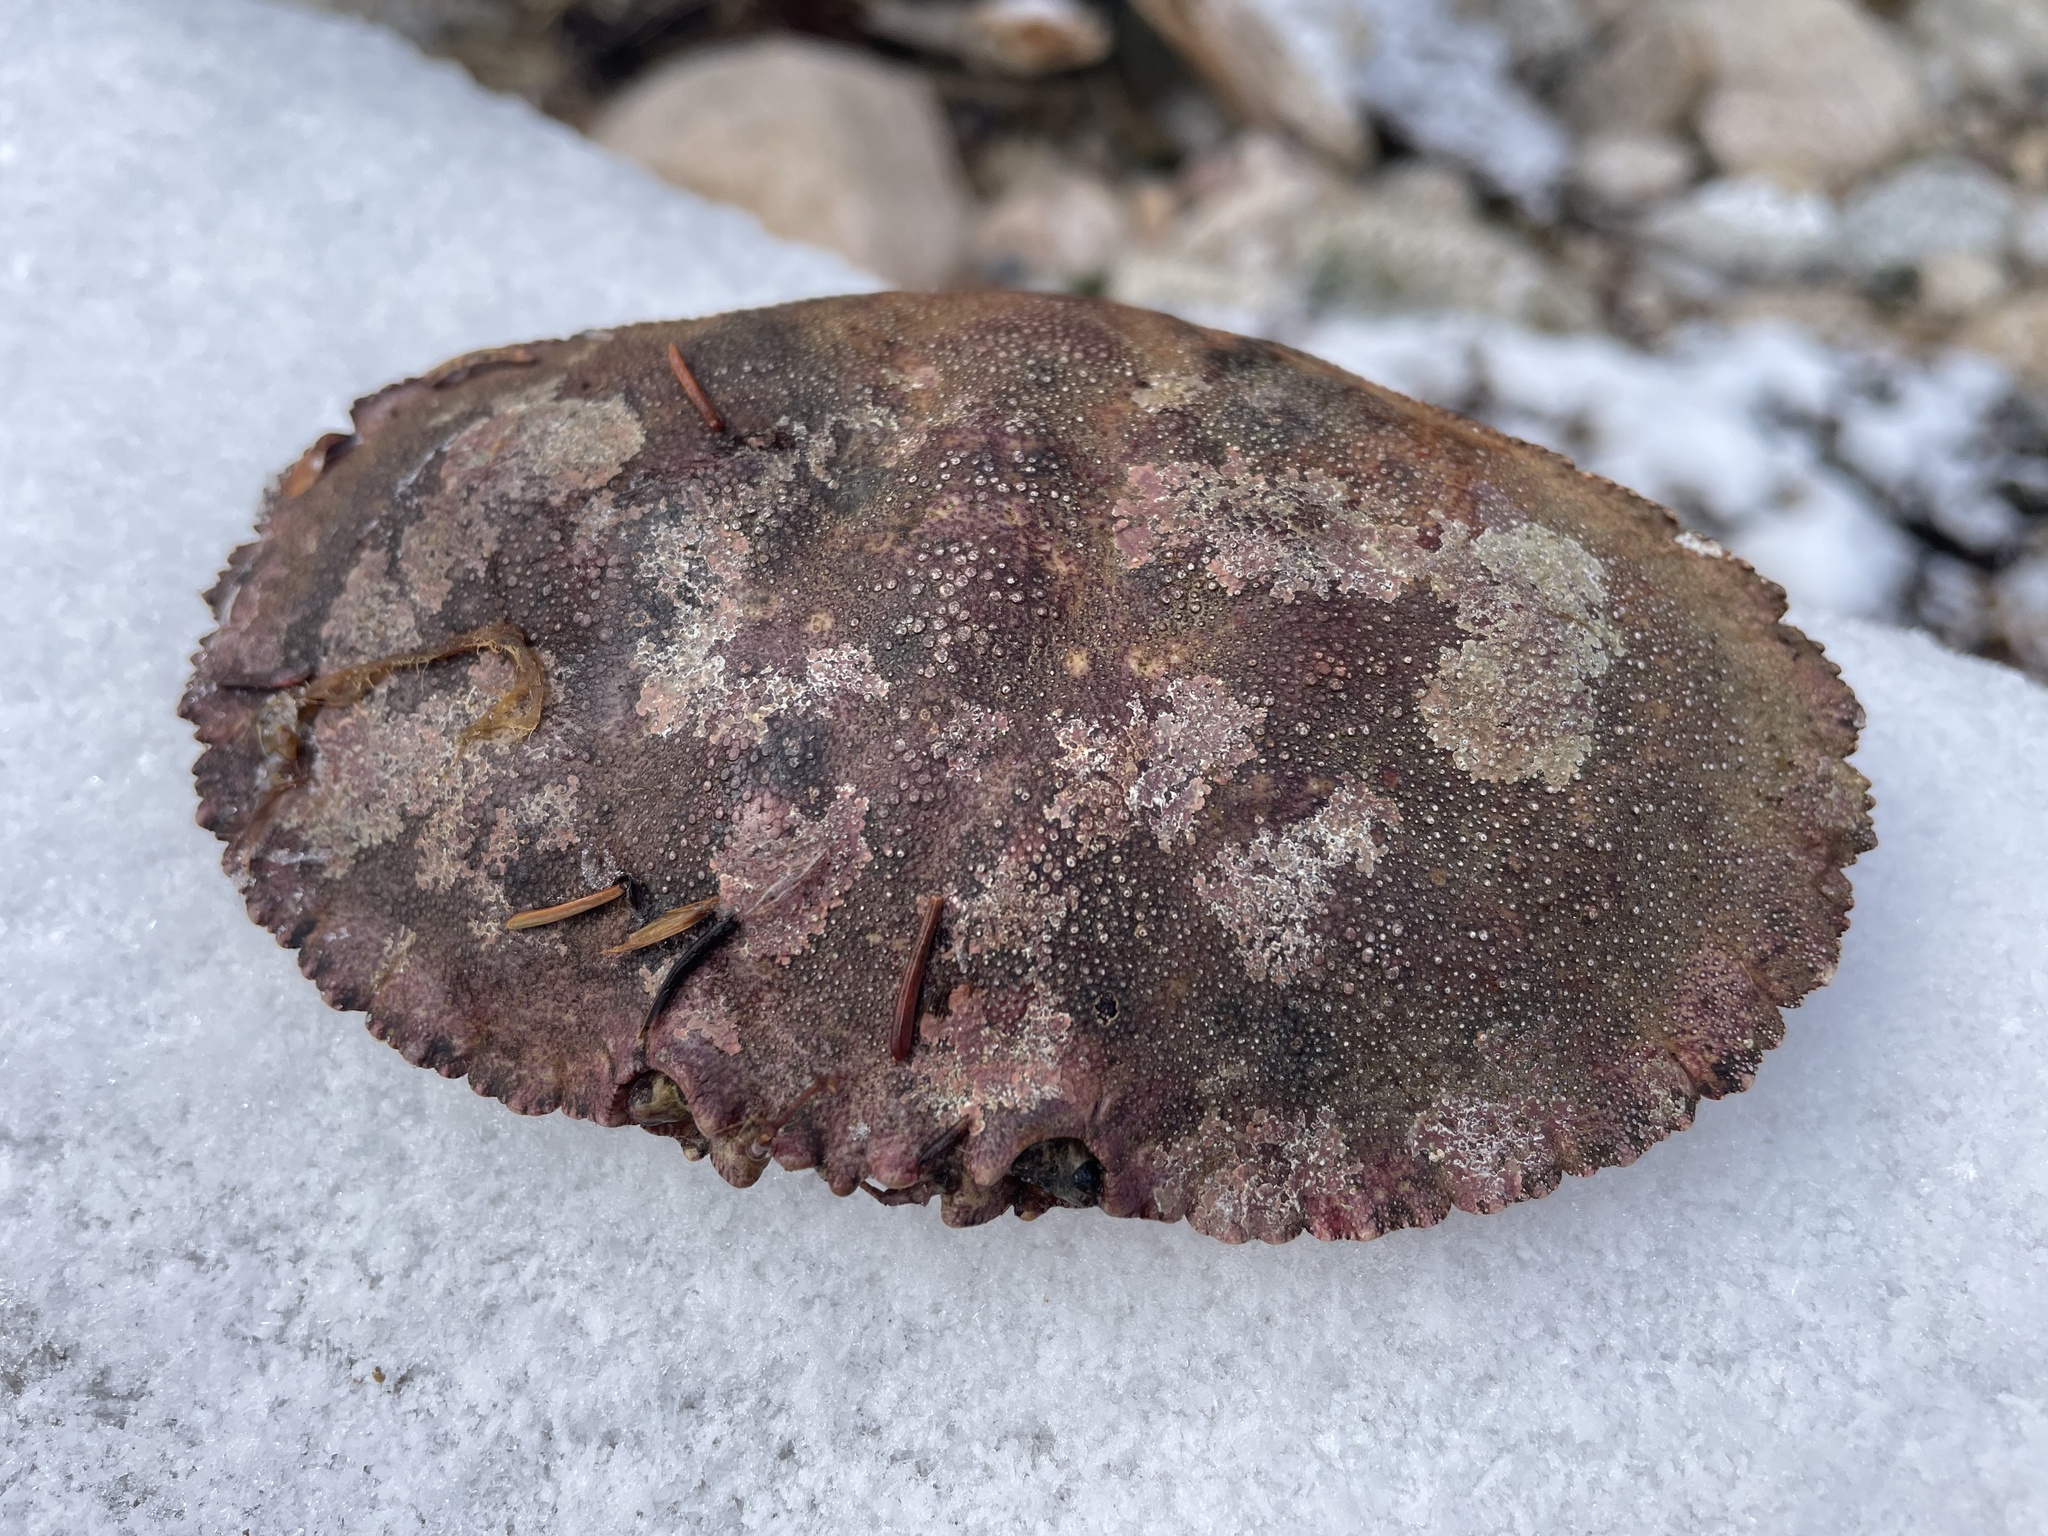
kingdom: Animalia
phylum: Arthropoda
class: Malacostraca
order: Decapoda
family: Cancridae
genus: Cancer
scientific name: Cancer borealis
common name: Jonah crab
